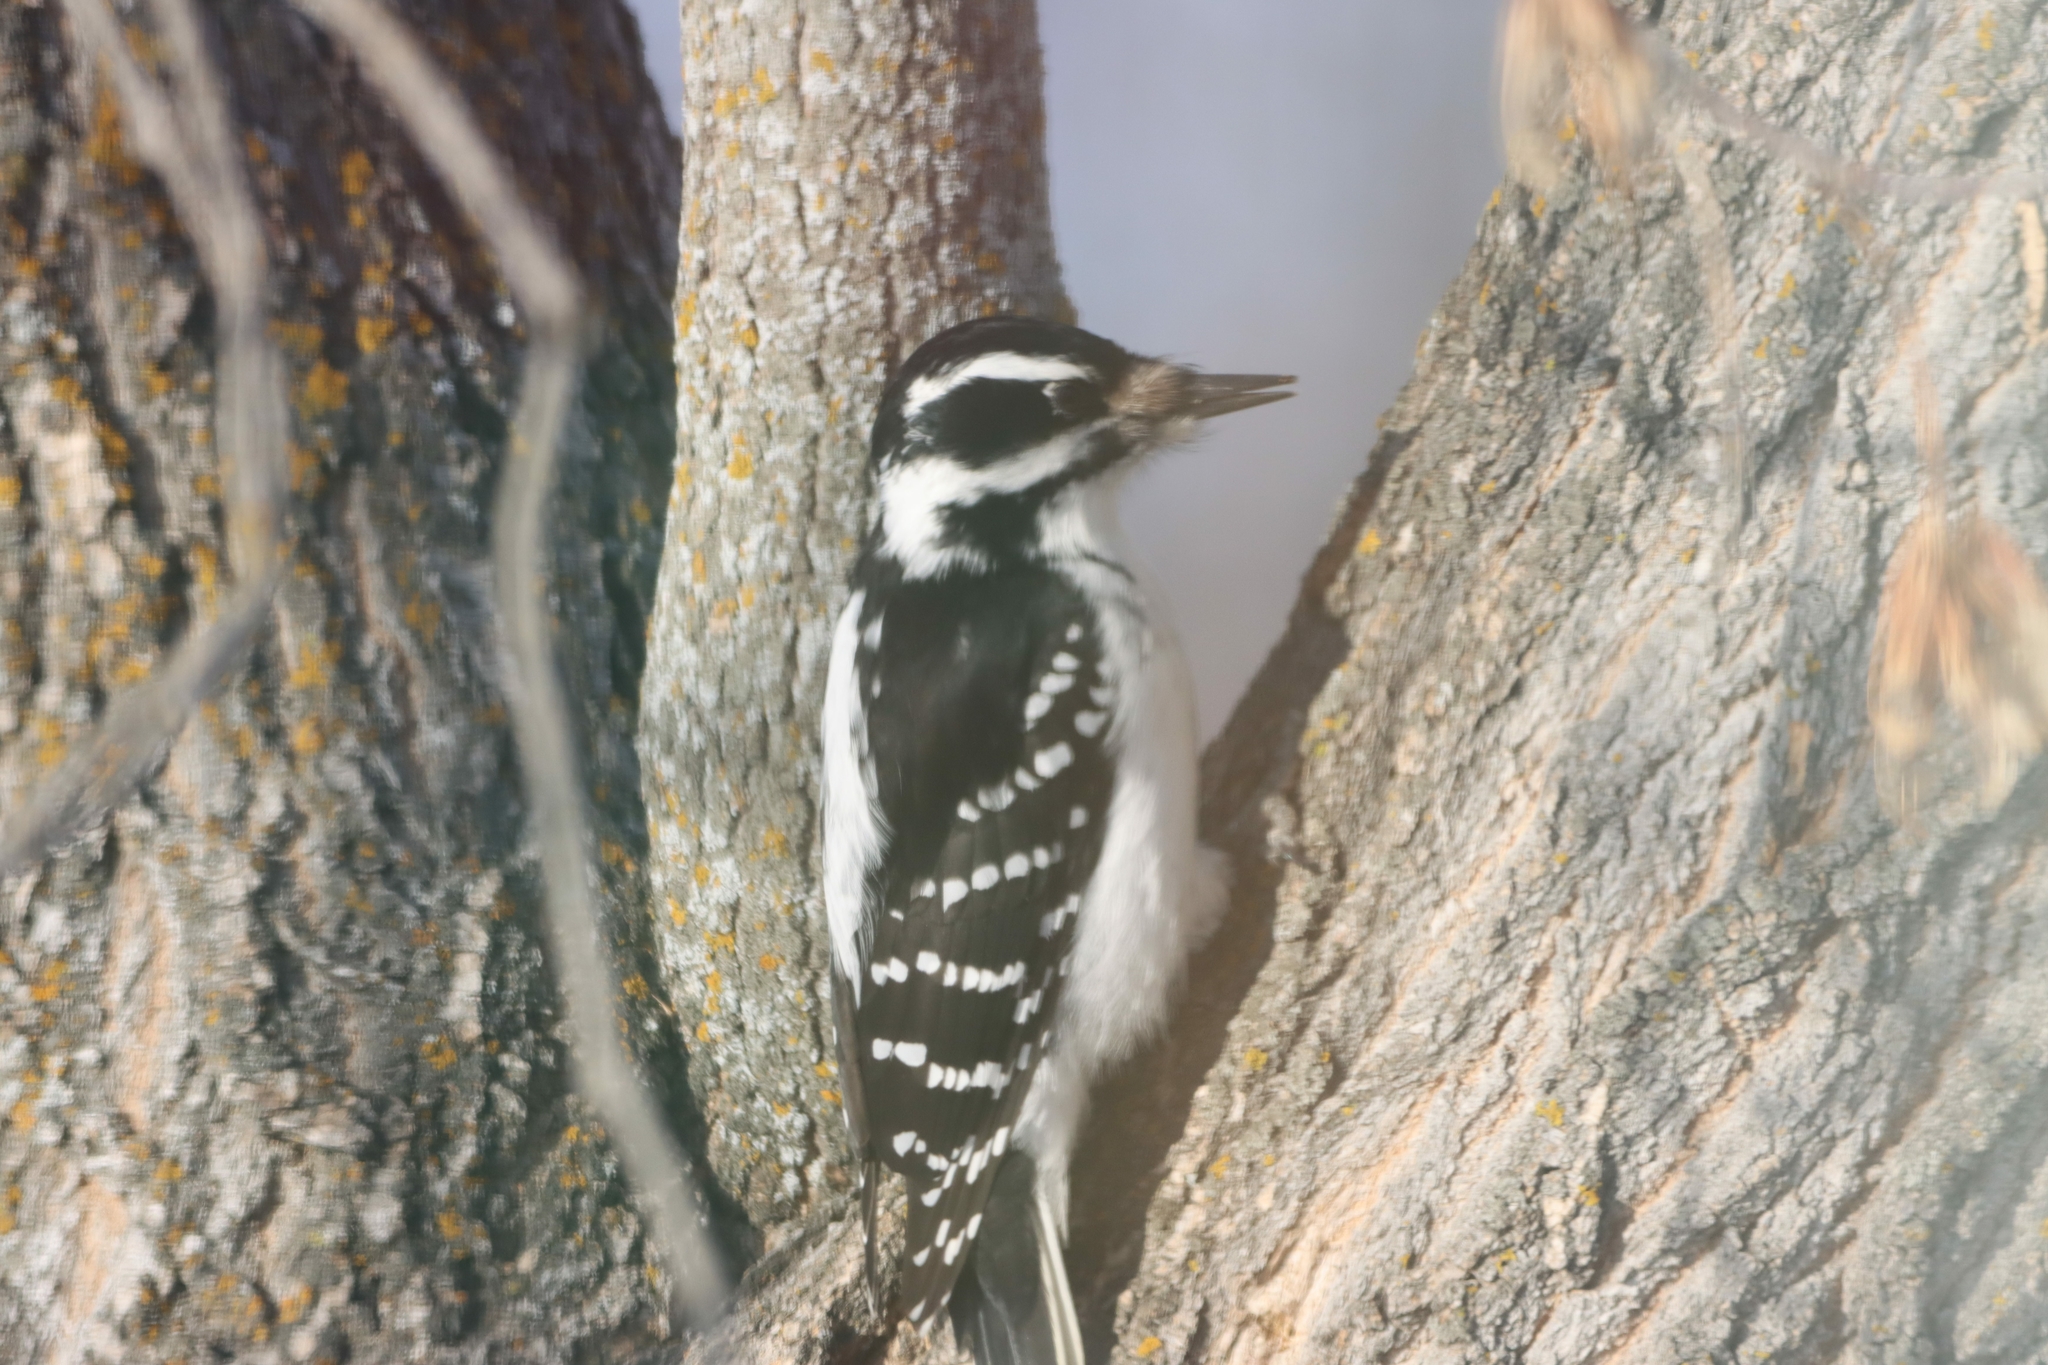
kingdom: Animalia
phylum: Chordata
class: Aves
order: Piciformes
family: Picidae
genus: Leuconotopicus
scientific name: Leuconotopicus villosus
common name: Hairy woodpecker
